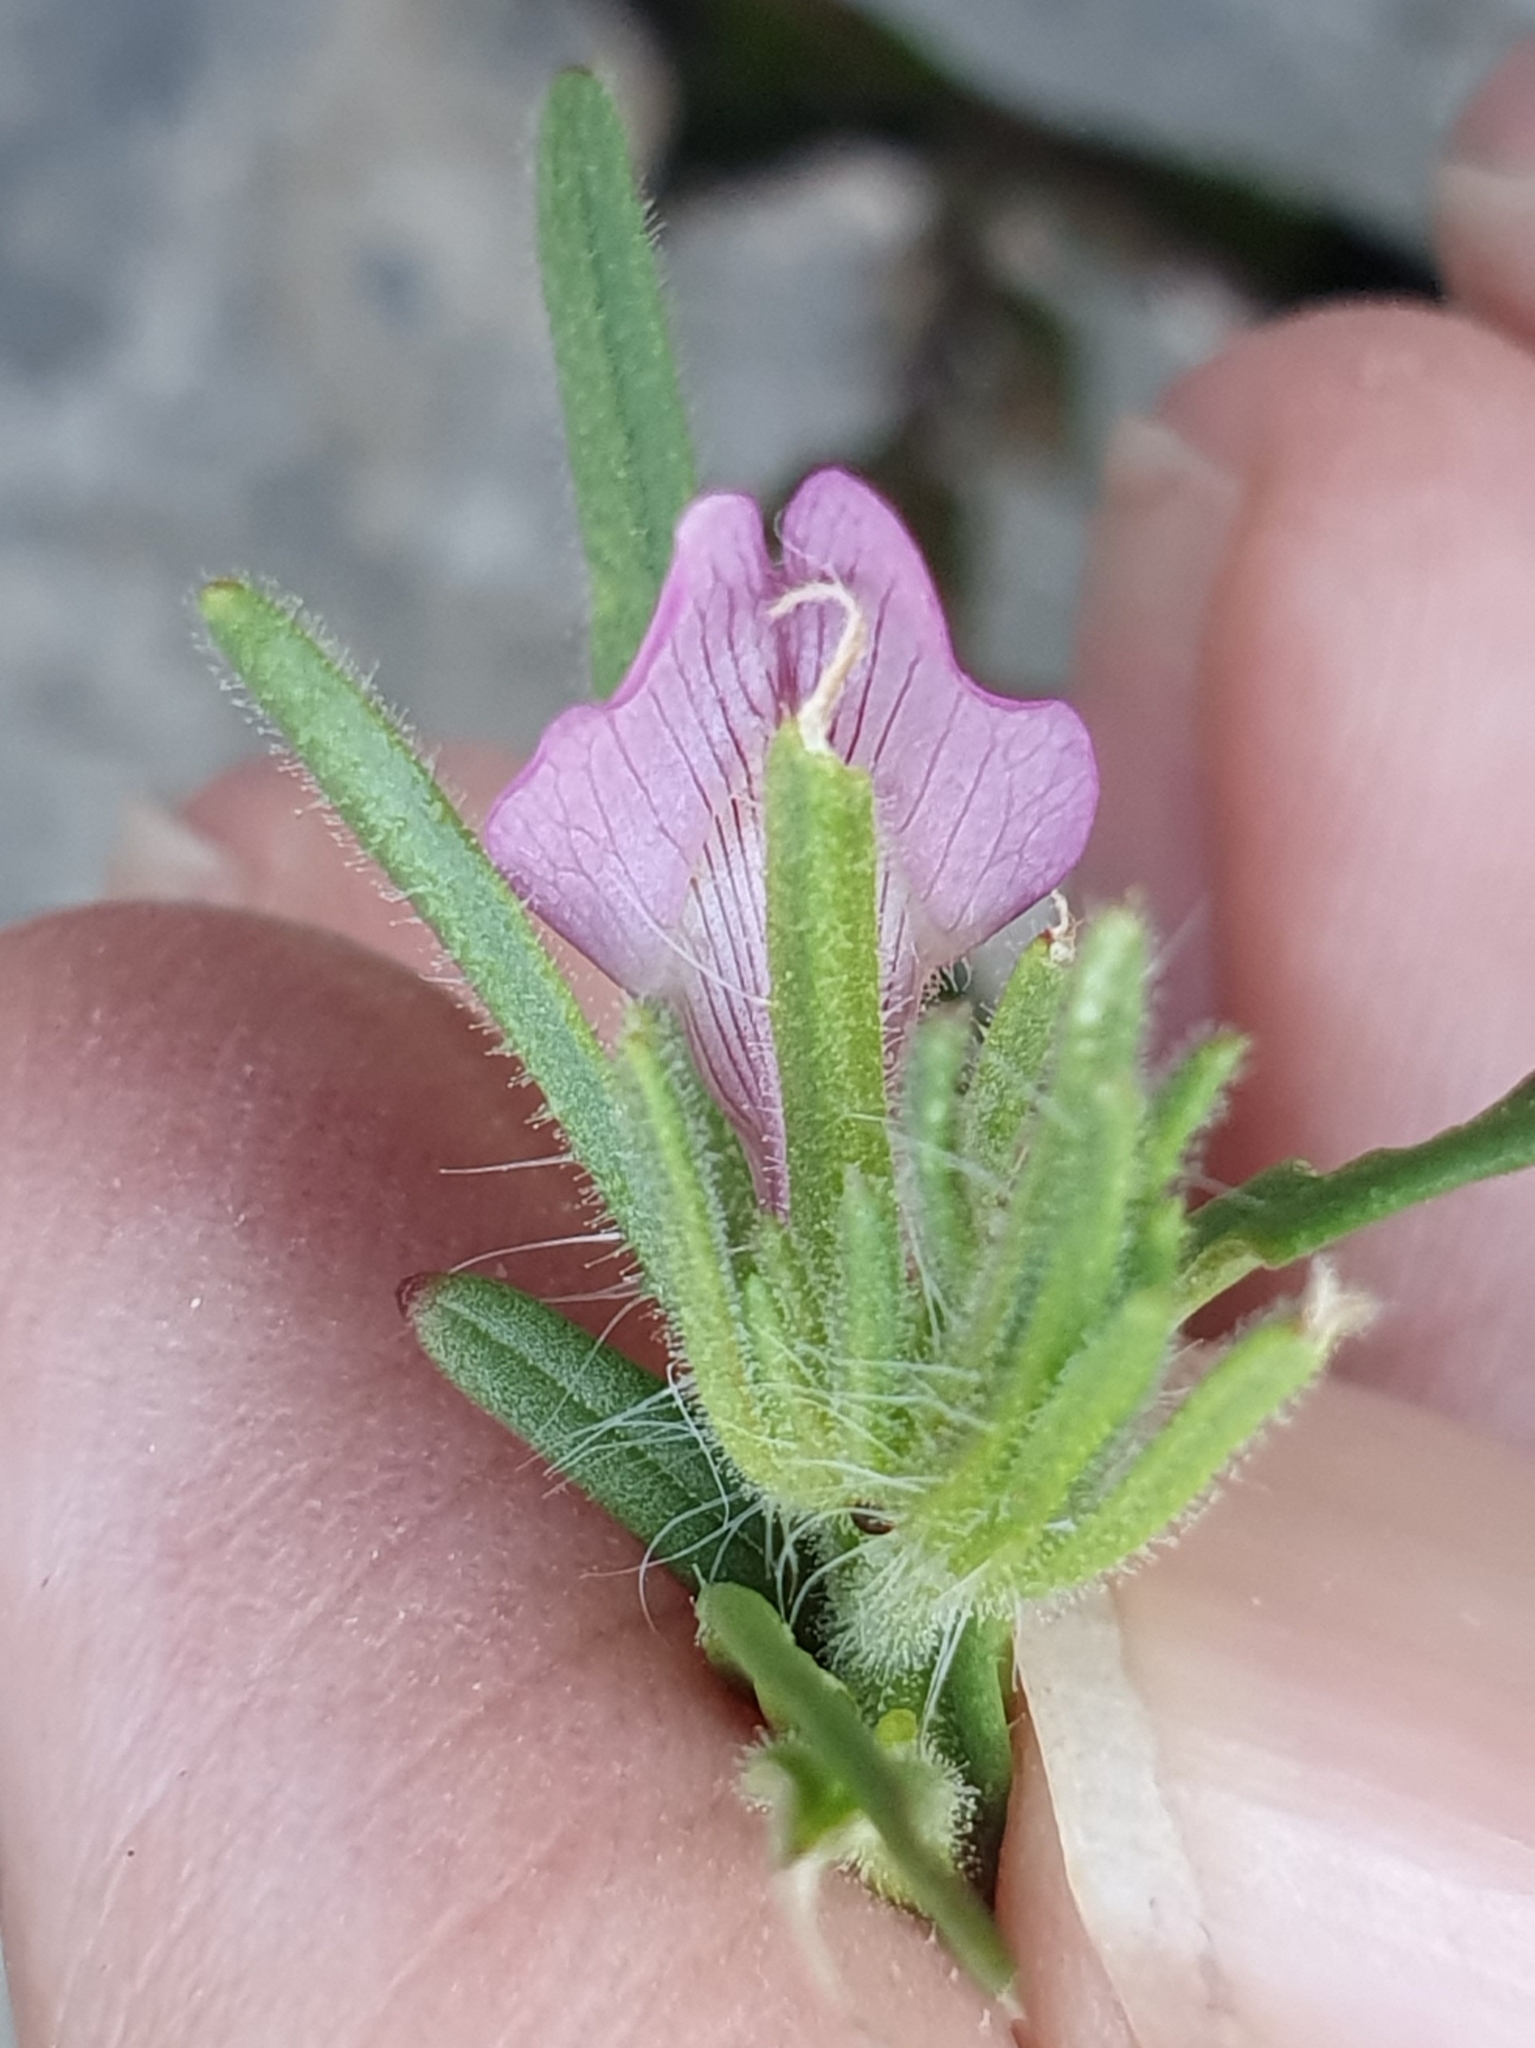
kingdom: Plantae
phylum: Tracheophyta
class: Magnoliopsida
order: Lamiales
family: Plantaginaceae
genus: Misopates
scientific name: Misopates orontium
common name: Weasel's-snout
